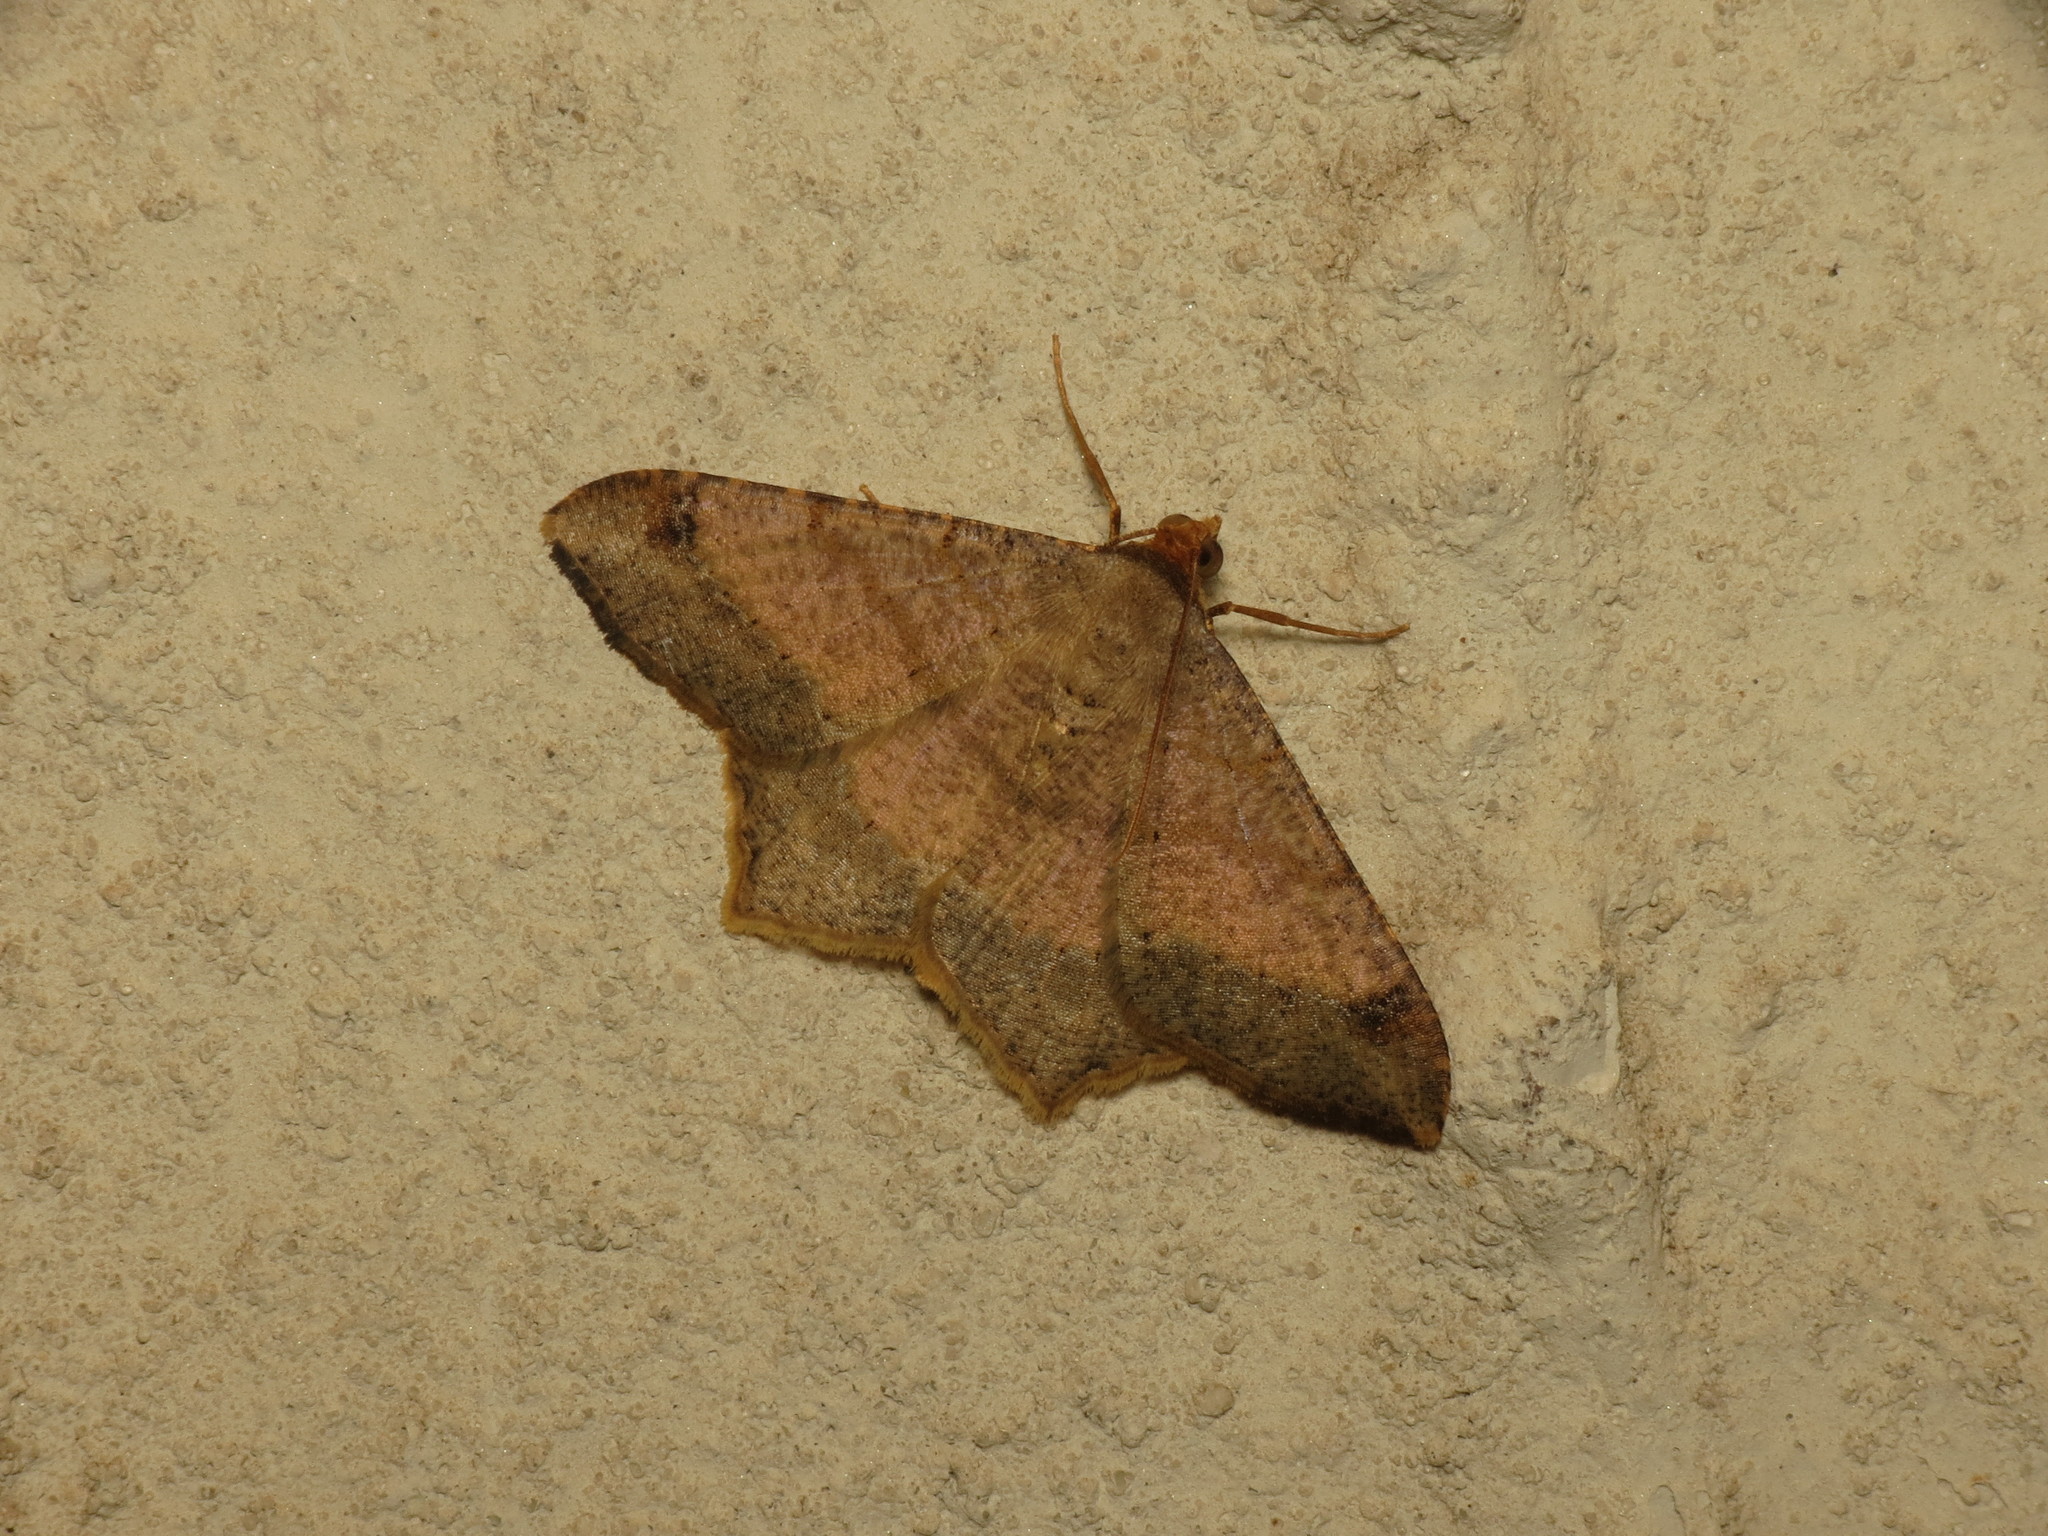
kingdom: Animalia
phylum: Arthropoda
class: Insecta
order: Lepidoptera
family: Geometridae
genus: Macaria
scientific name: Macaria abydata
